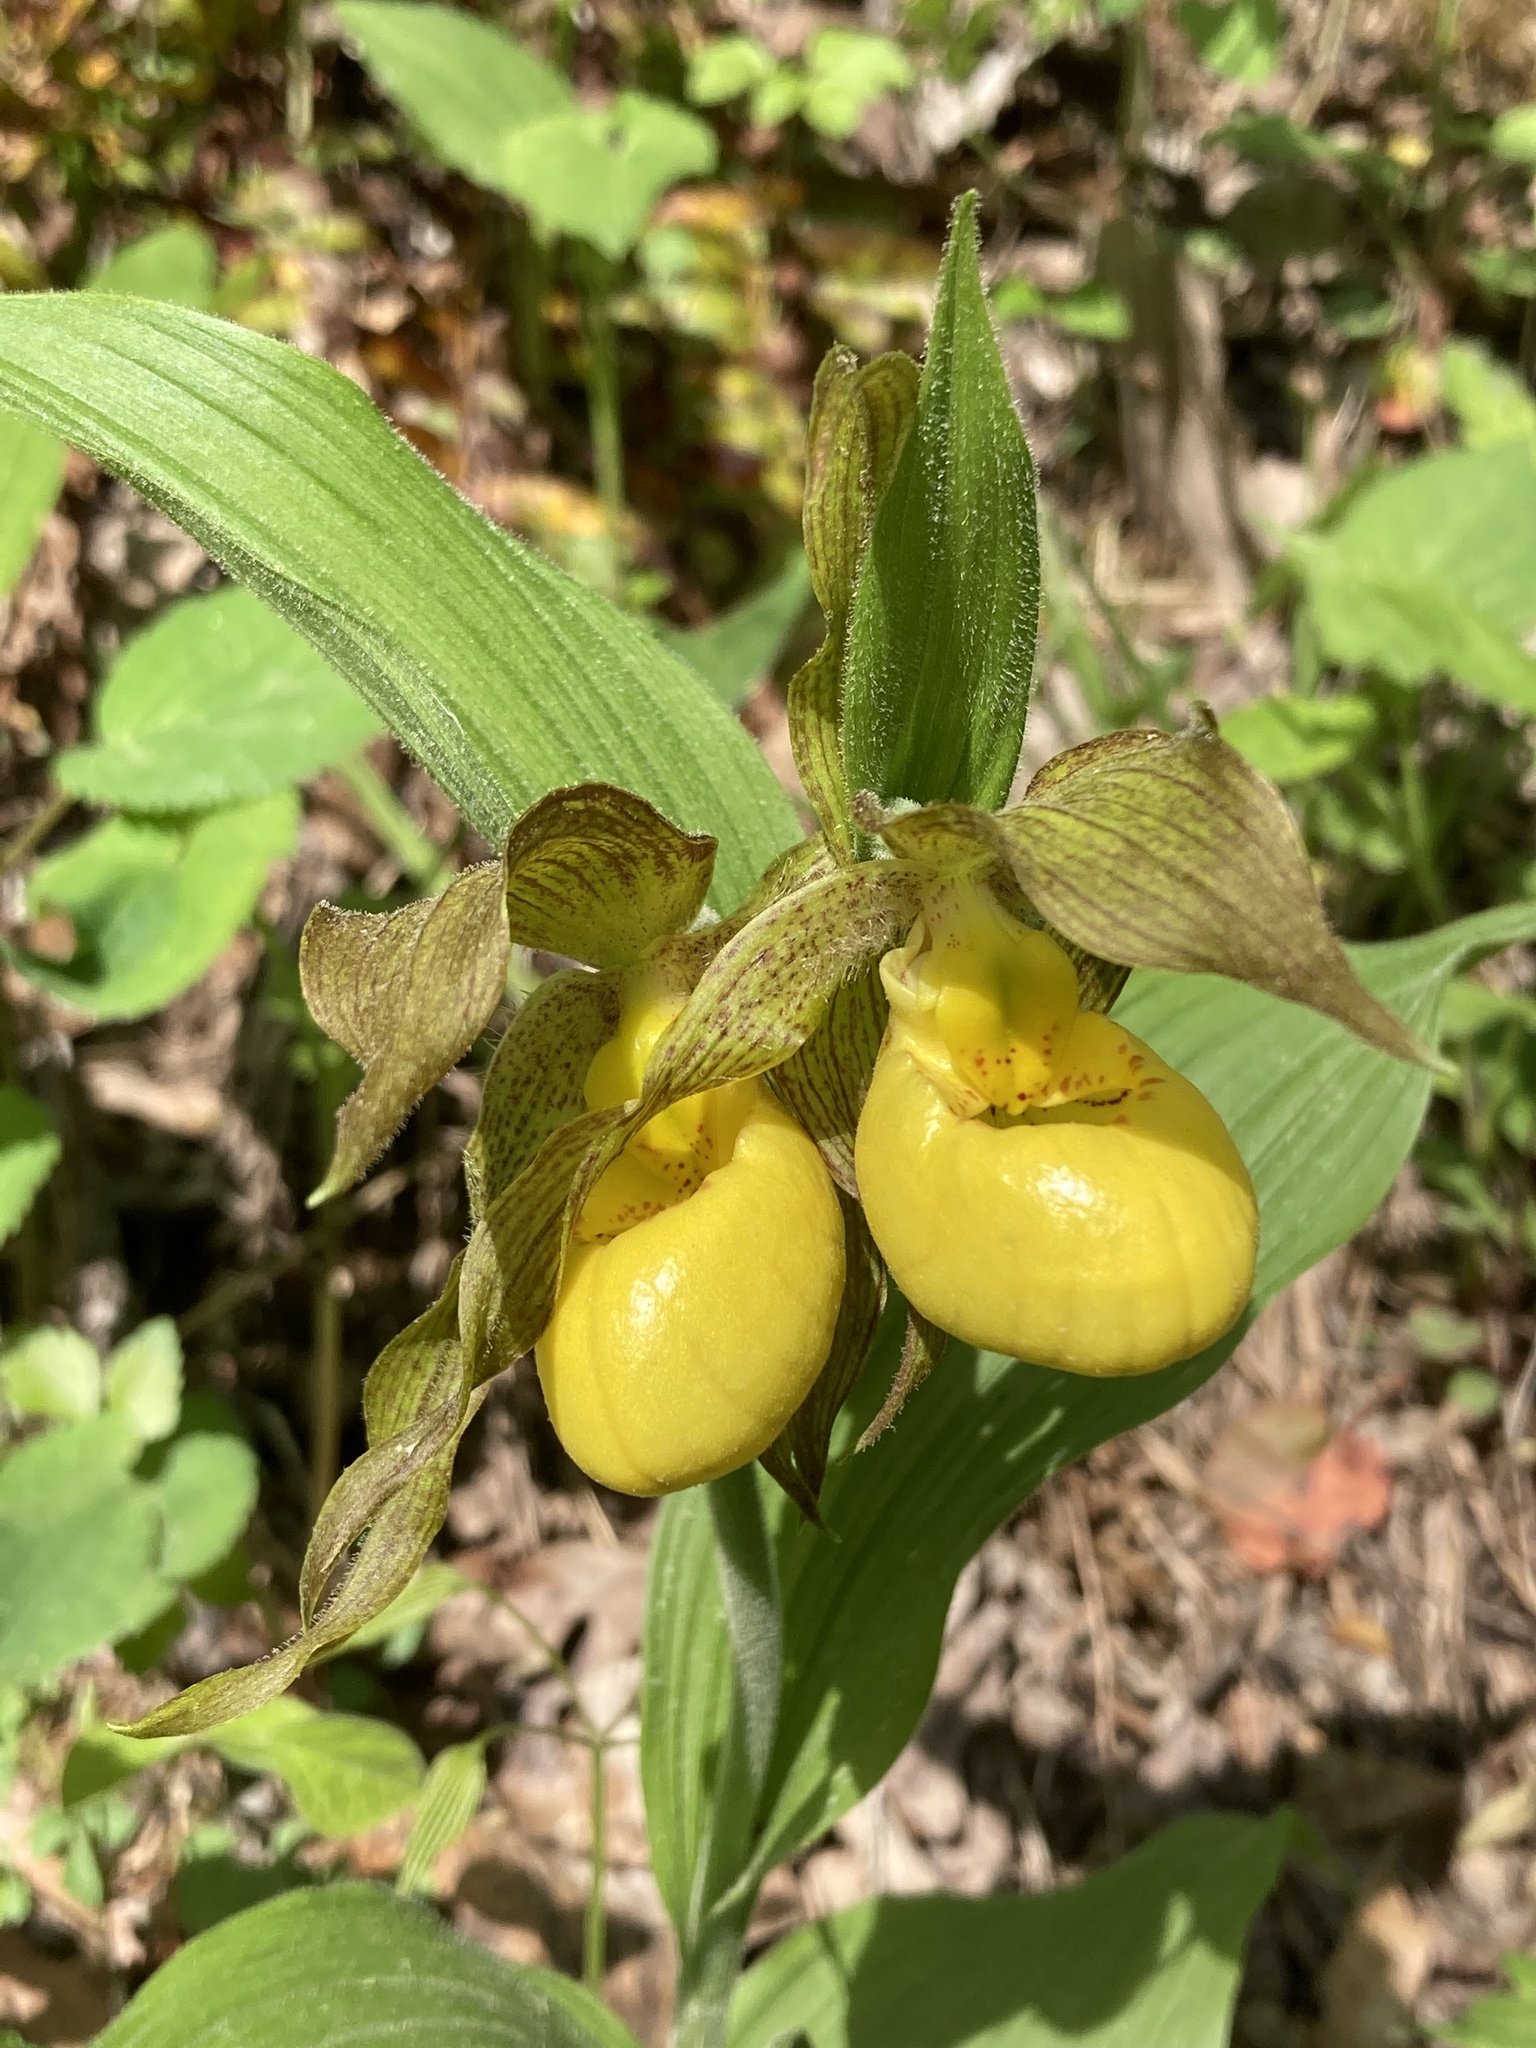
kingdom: Plantae
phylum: Tracheophyta
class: Liliopsida
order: Asparagales
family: Orchidaceae
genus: Cypripedium
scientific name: Cypripedium parviflorum
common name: American yellow lady's-slipper
